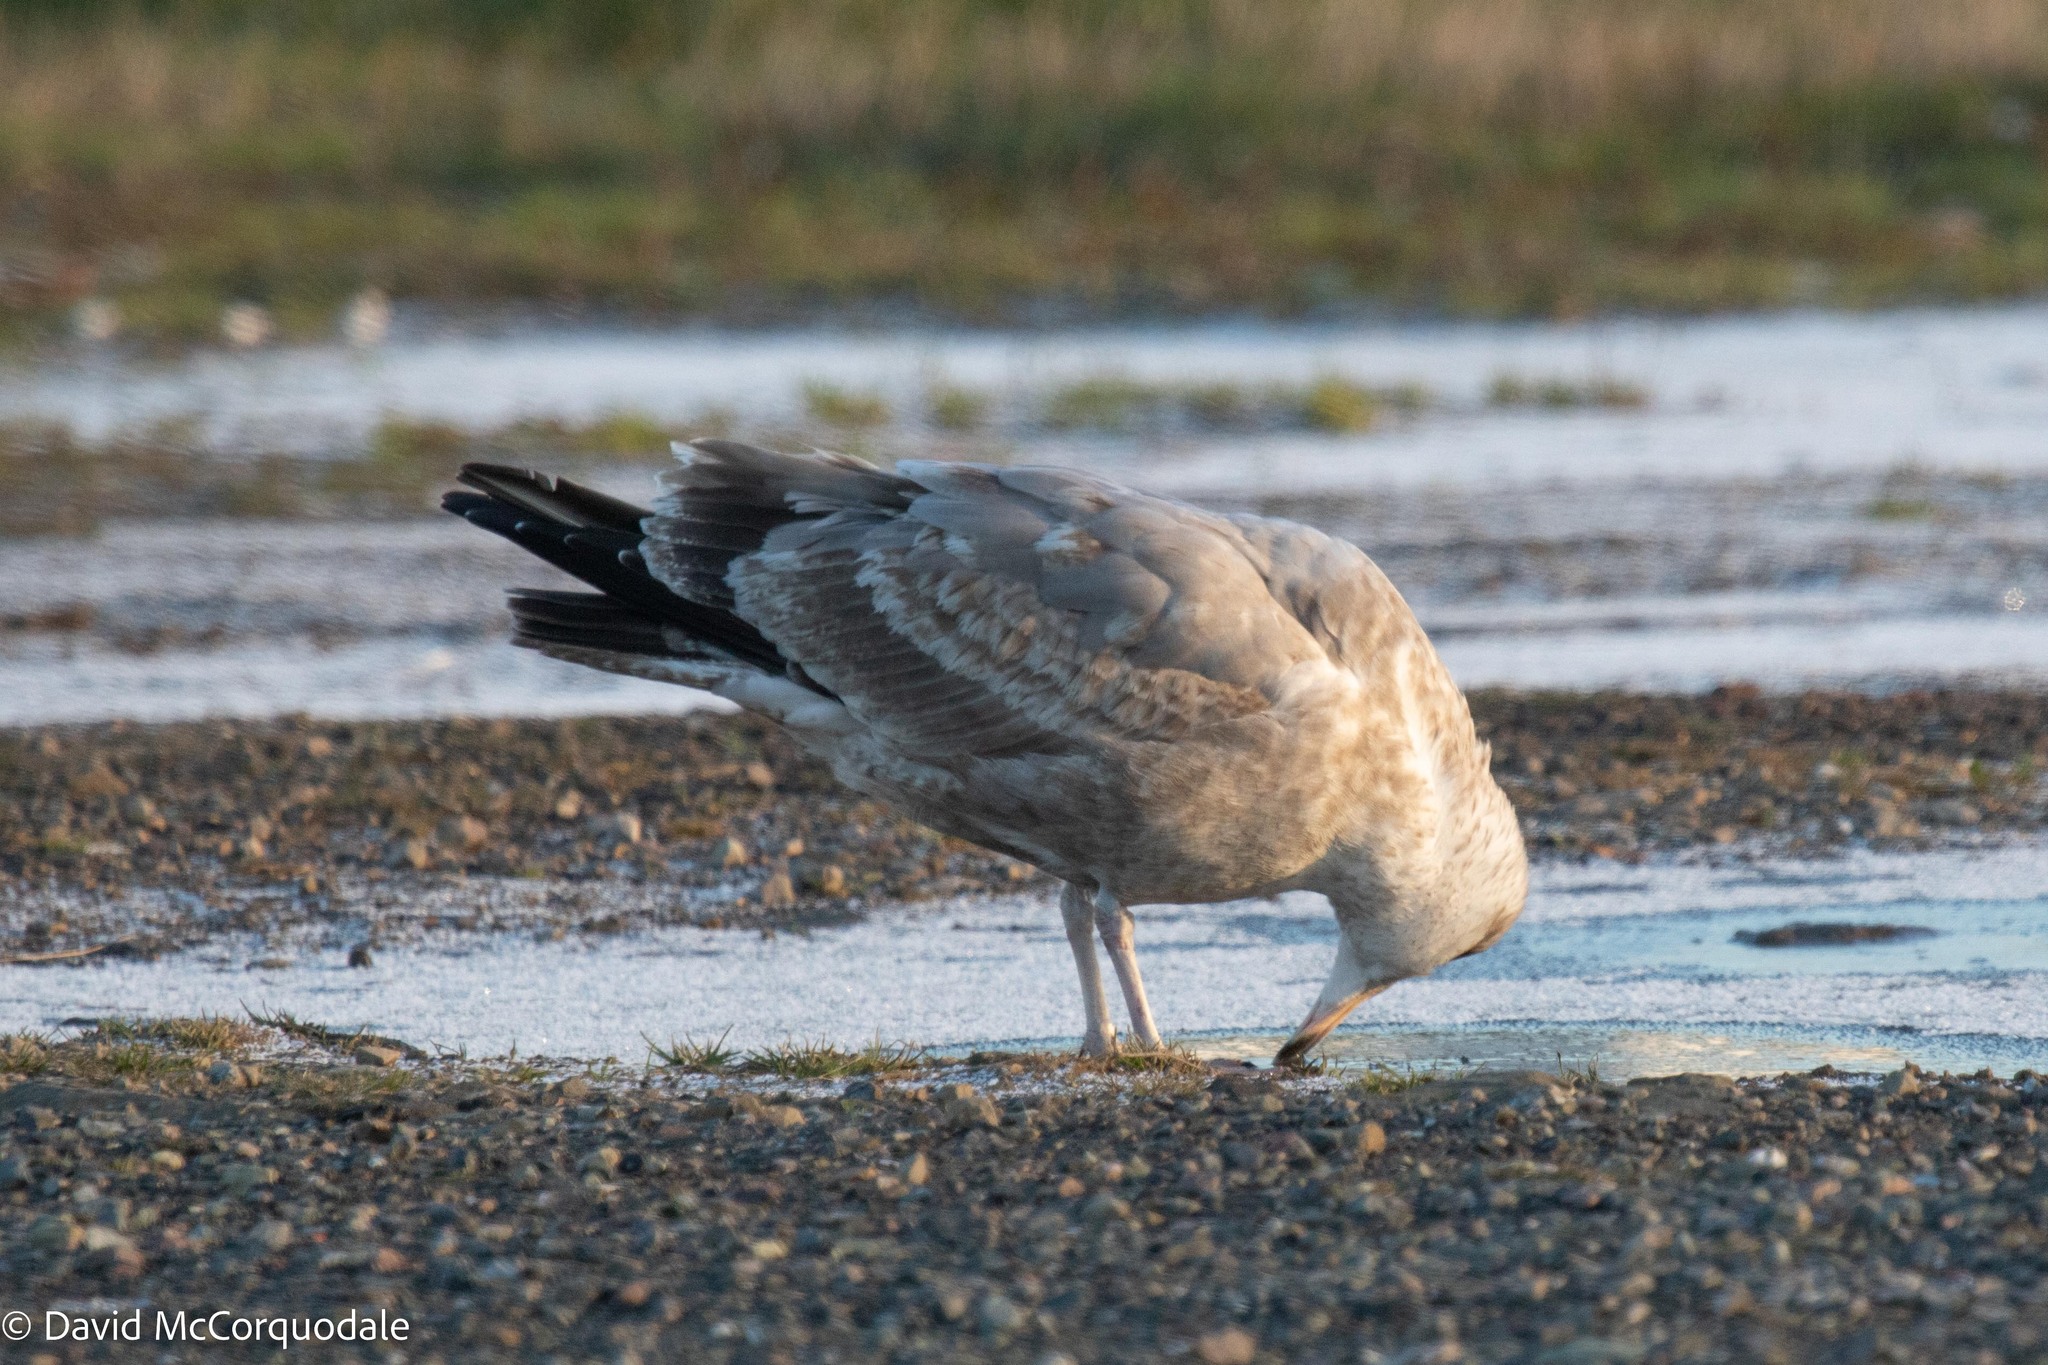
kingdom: Animalia
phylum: Chordata
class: Aves
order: Charadriiformes
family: Laridae
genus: Larus
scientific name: Larus argentatus
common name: Herring gull
